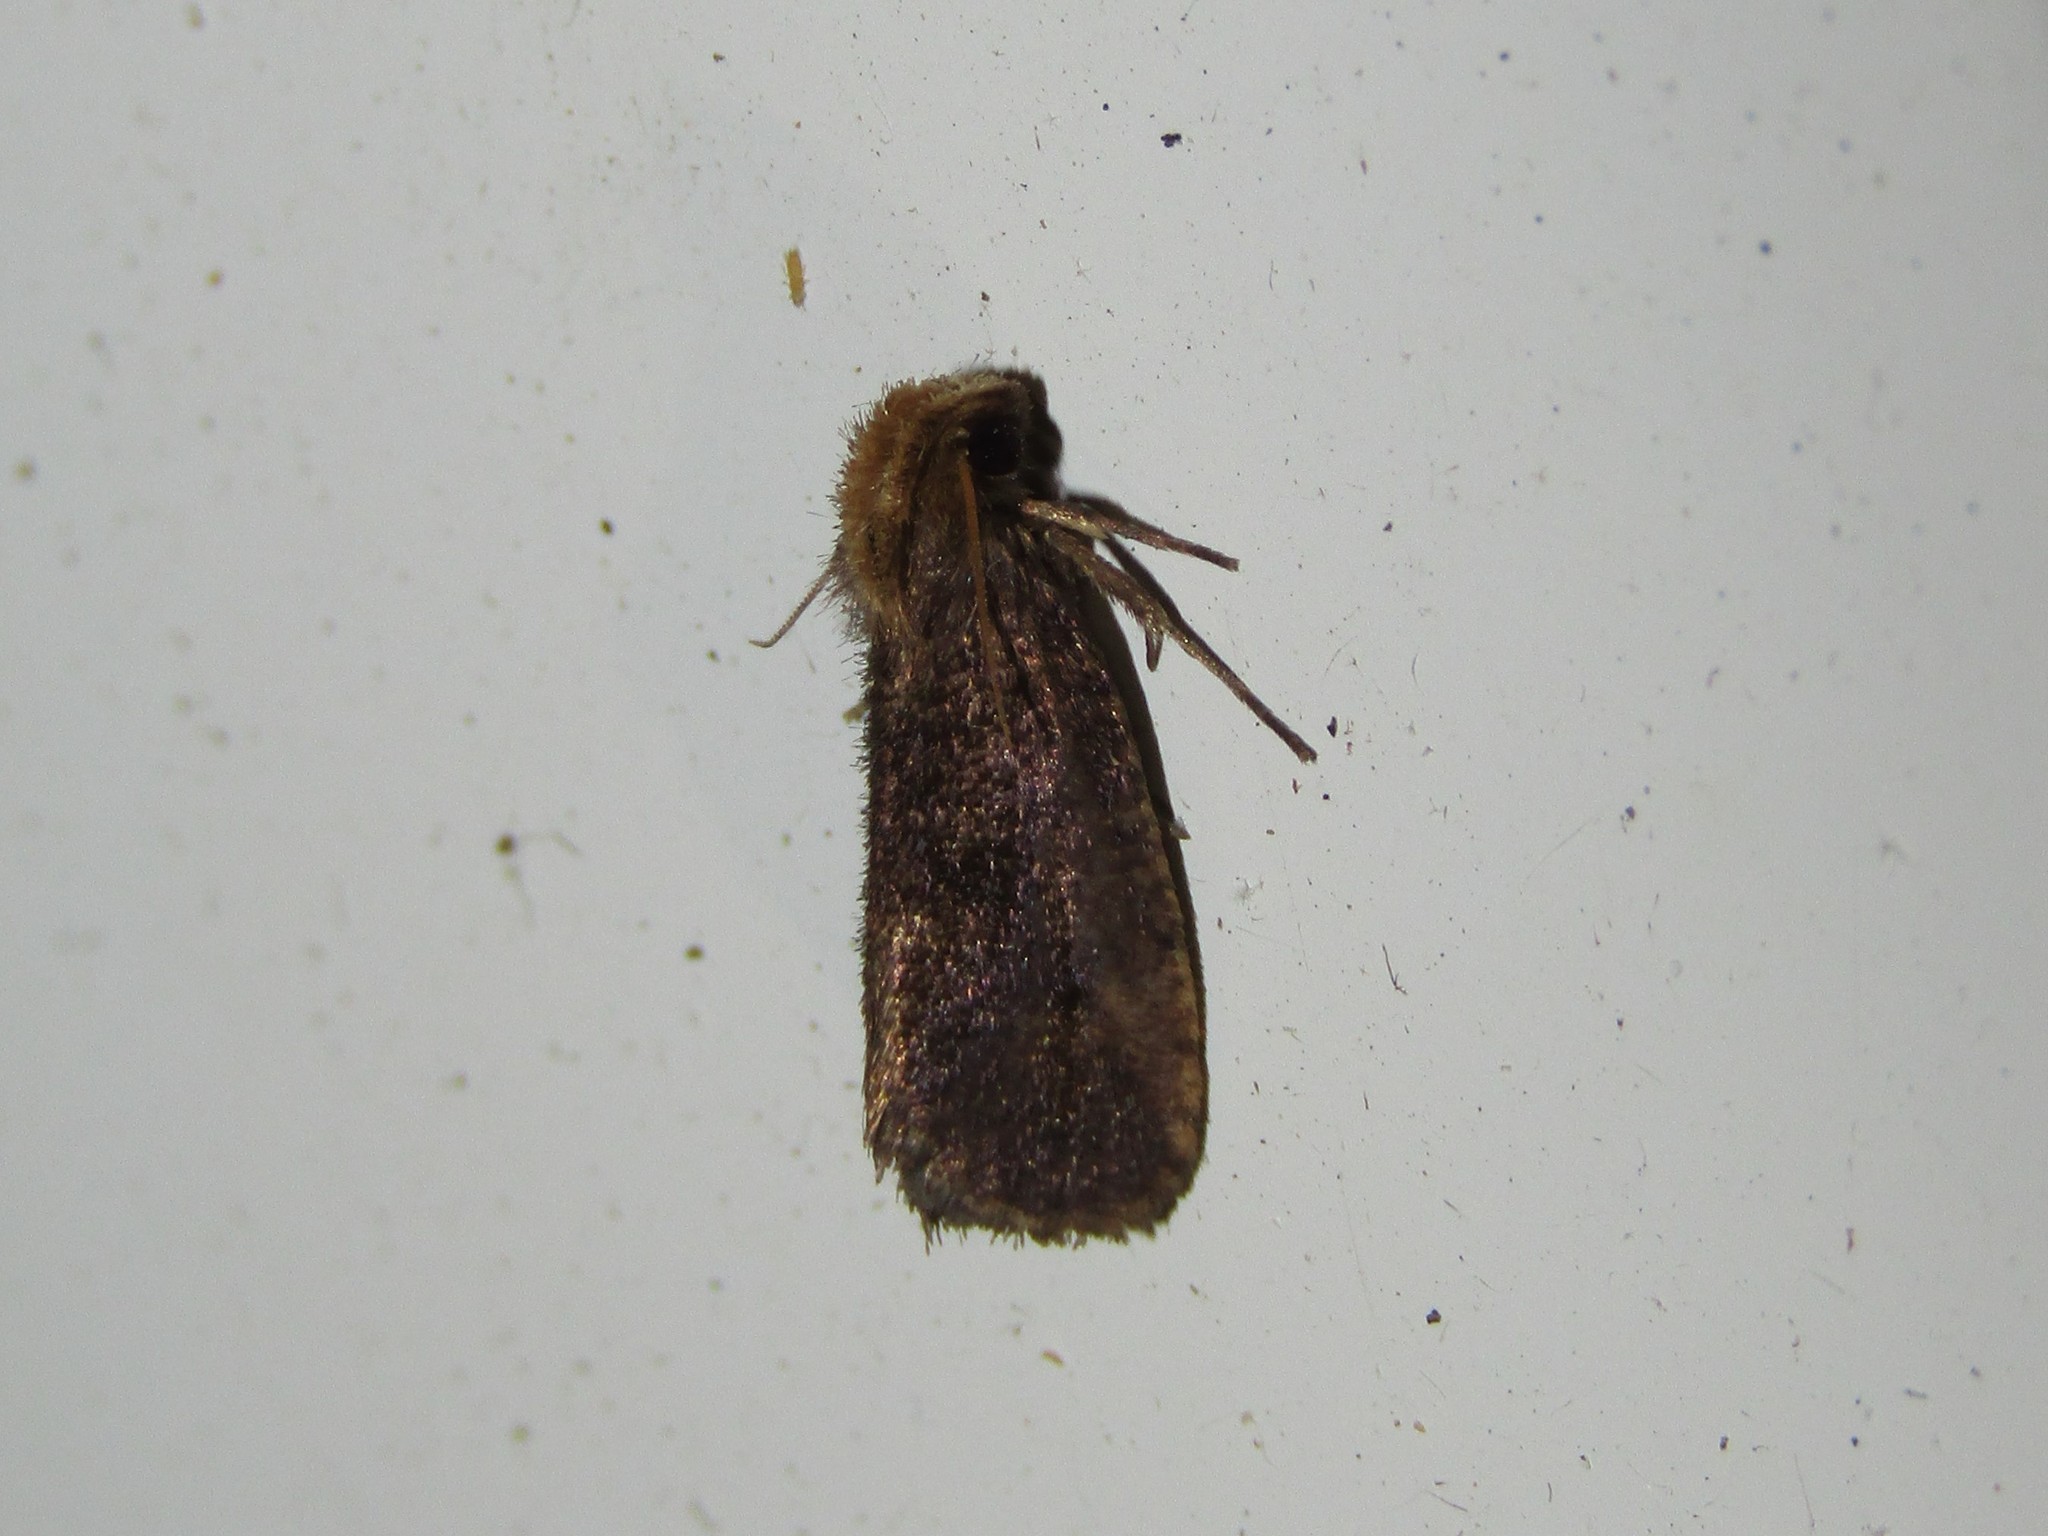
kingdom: Animalia
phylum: Arthropoda
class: Insecta
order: Lepidoptera
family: Tineidae
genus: Acrolophus
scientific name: Acrolophus propinqua
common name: Walsingham's grass tubeworm moth
